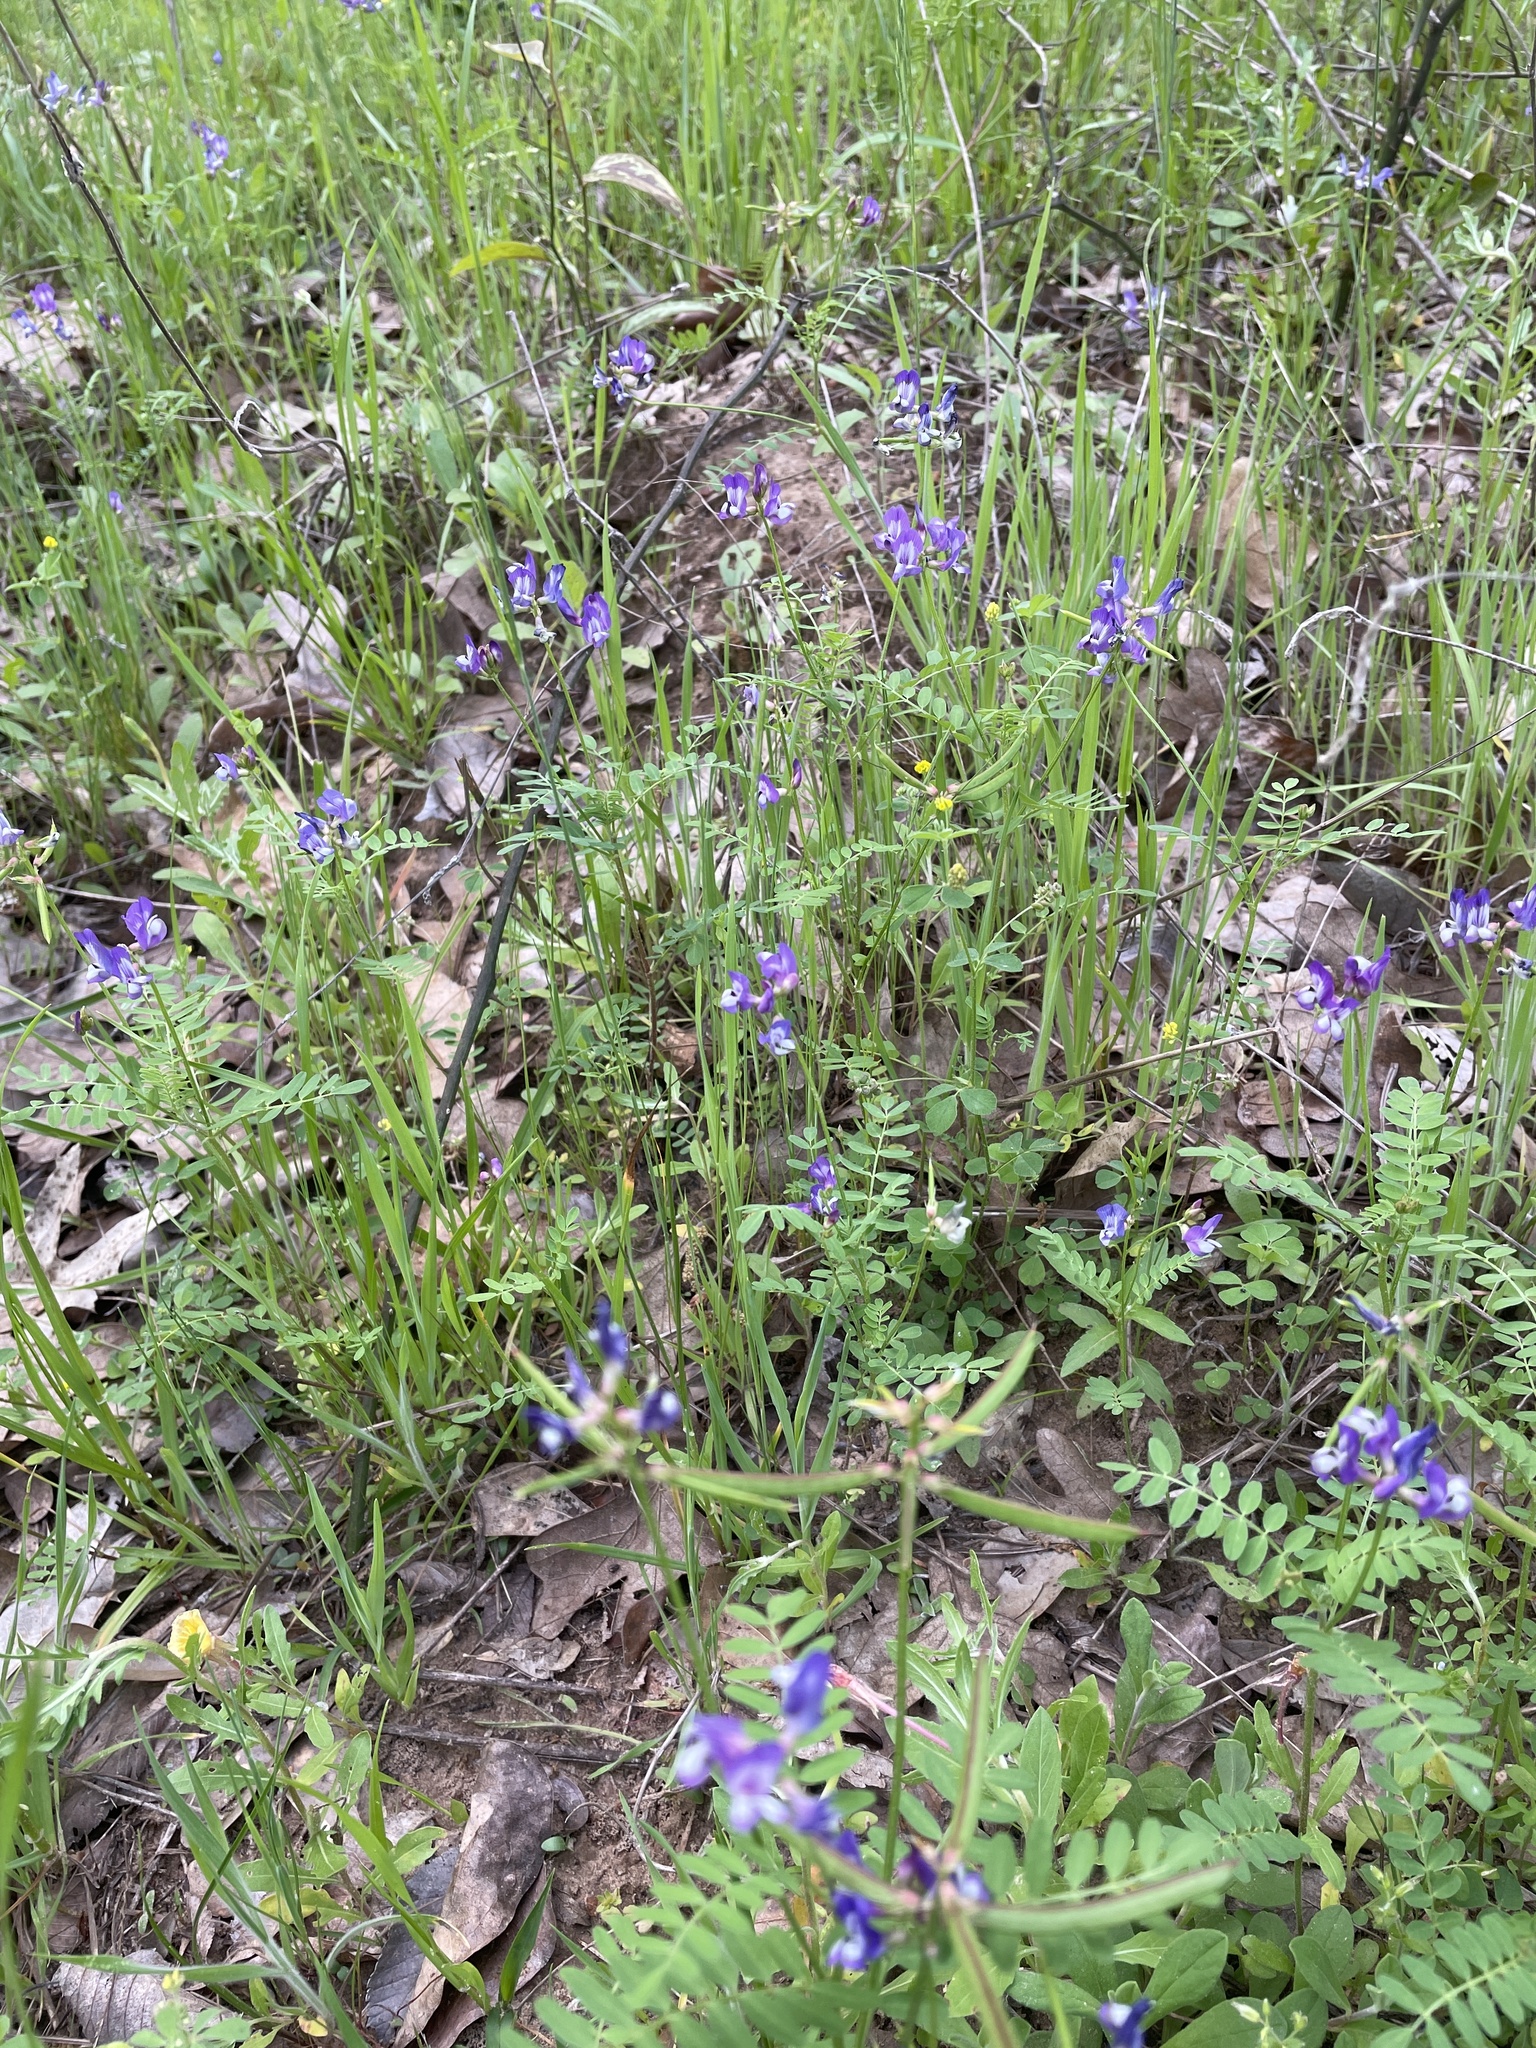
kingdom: Plantae
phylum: Tracheophyta
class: Magnoliopsida
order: Fabales
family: Fabaceae
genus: Astragalus
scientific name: Astragalus leptocarpus
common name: Bodkin milk-vetch
